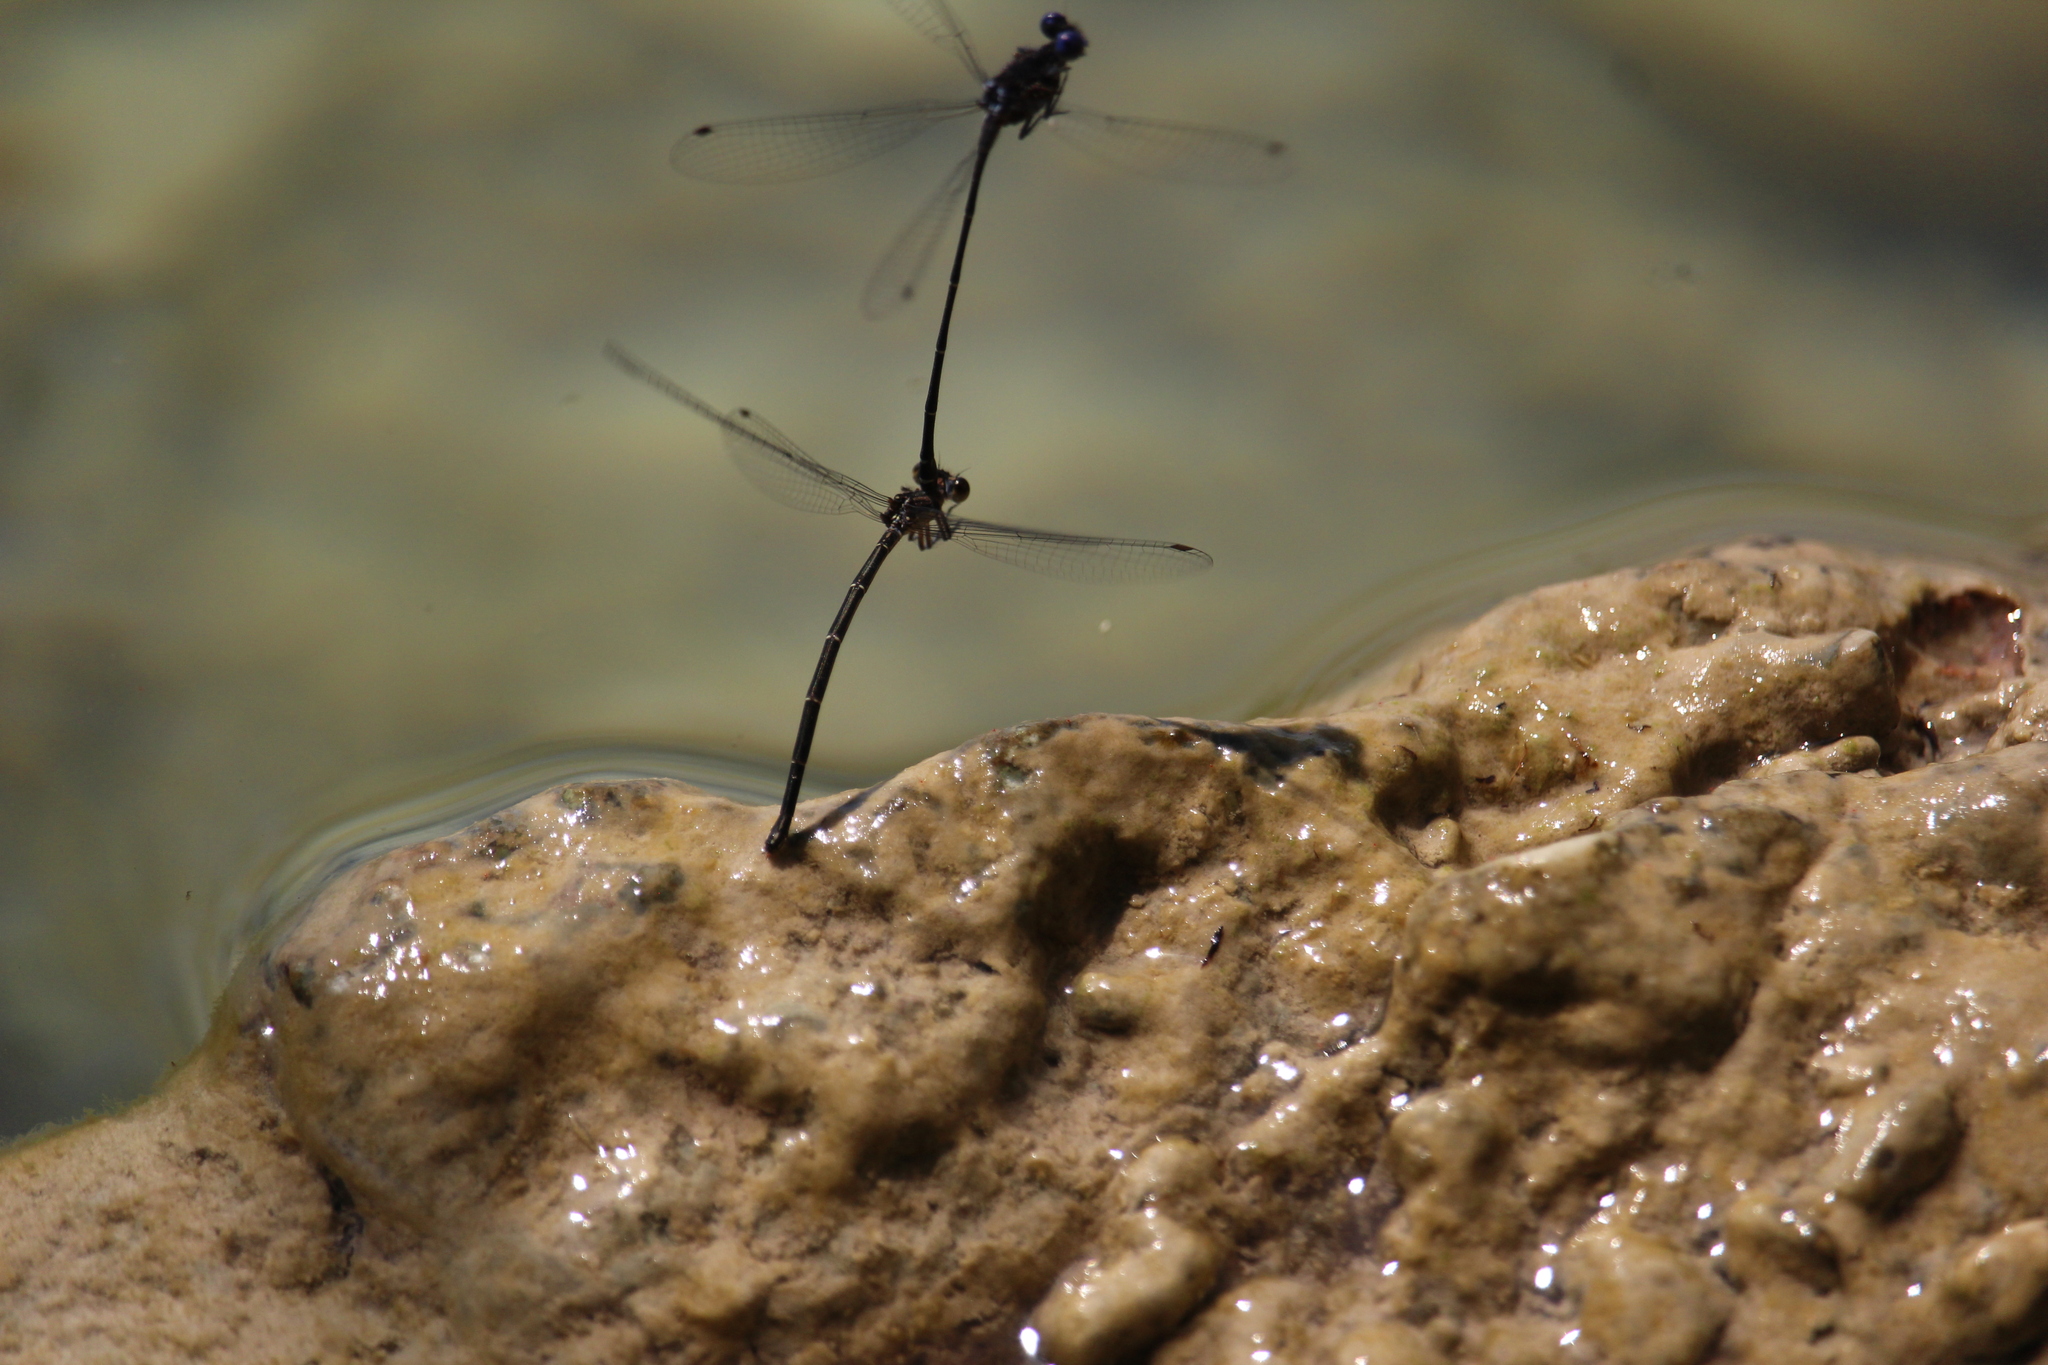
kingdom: Animalia
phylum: Arthropoda
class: Insecta
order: Odonata
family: Coenagrionidae
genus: Argia
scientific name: Argia translata
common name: Dusky dancer
